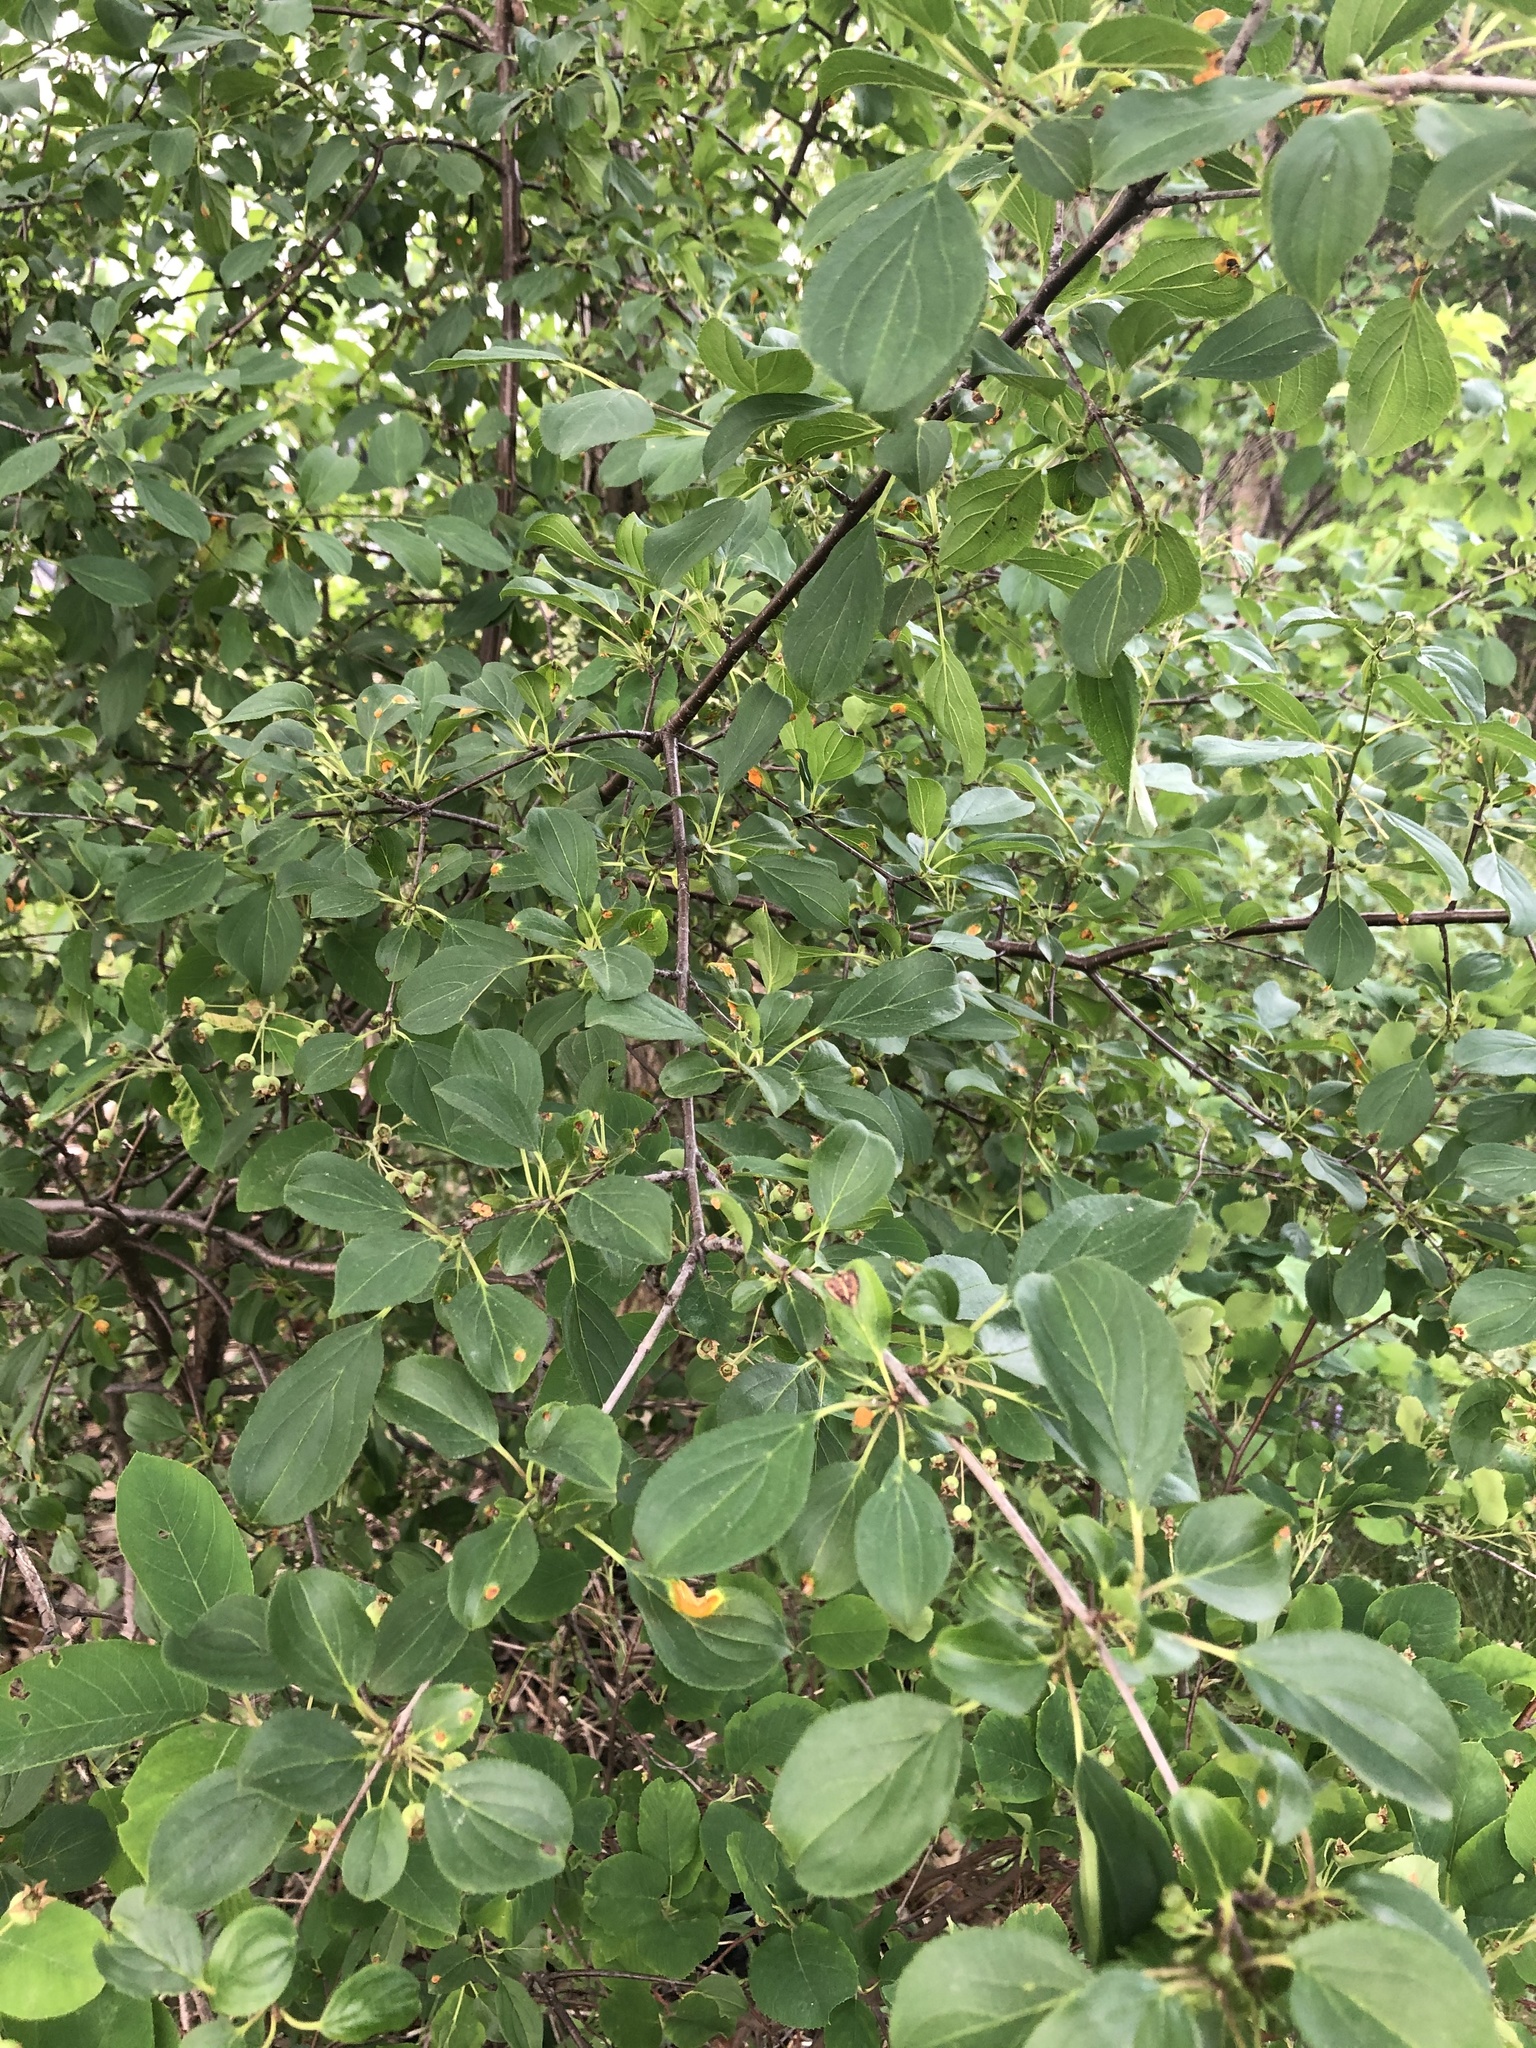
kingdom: Plantae
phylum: Tracheophyta
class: Magnoliopsida
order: Rosales
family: Rhamnaceae
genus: Rhamnus
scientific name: Rhamnus cathartica
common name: Common buckthorn
